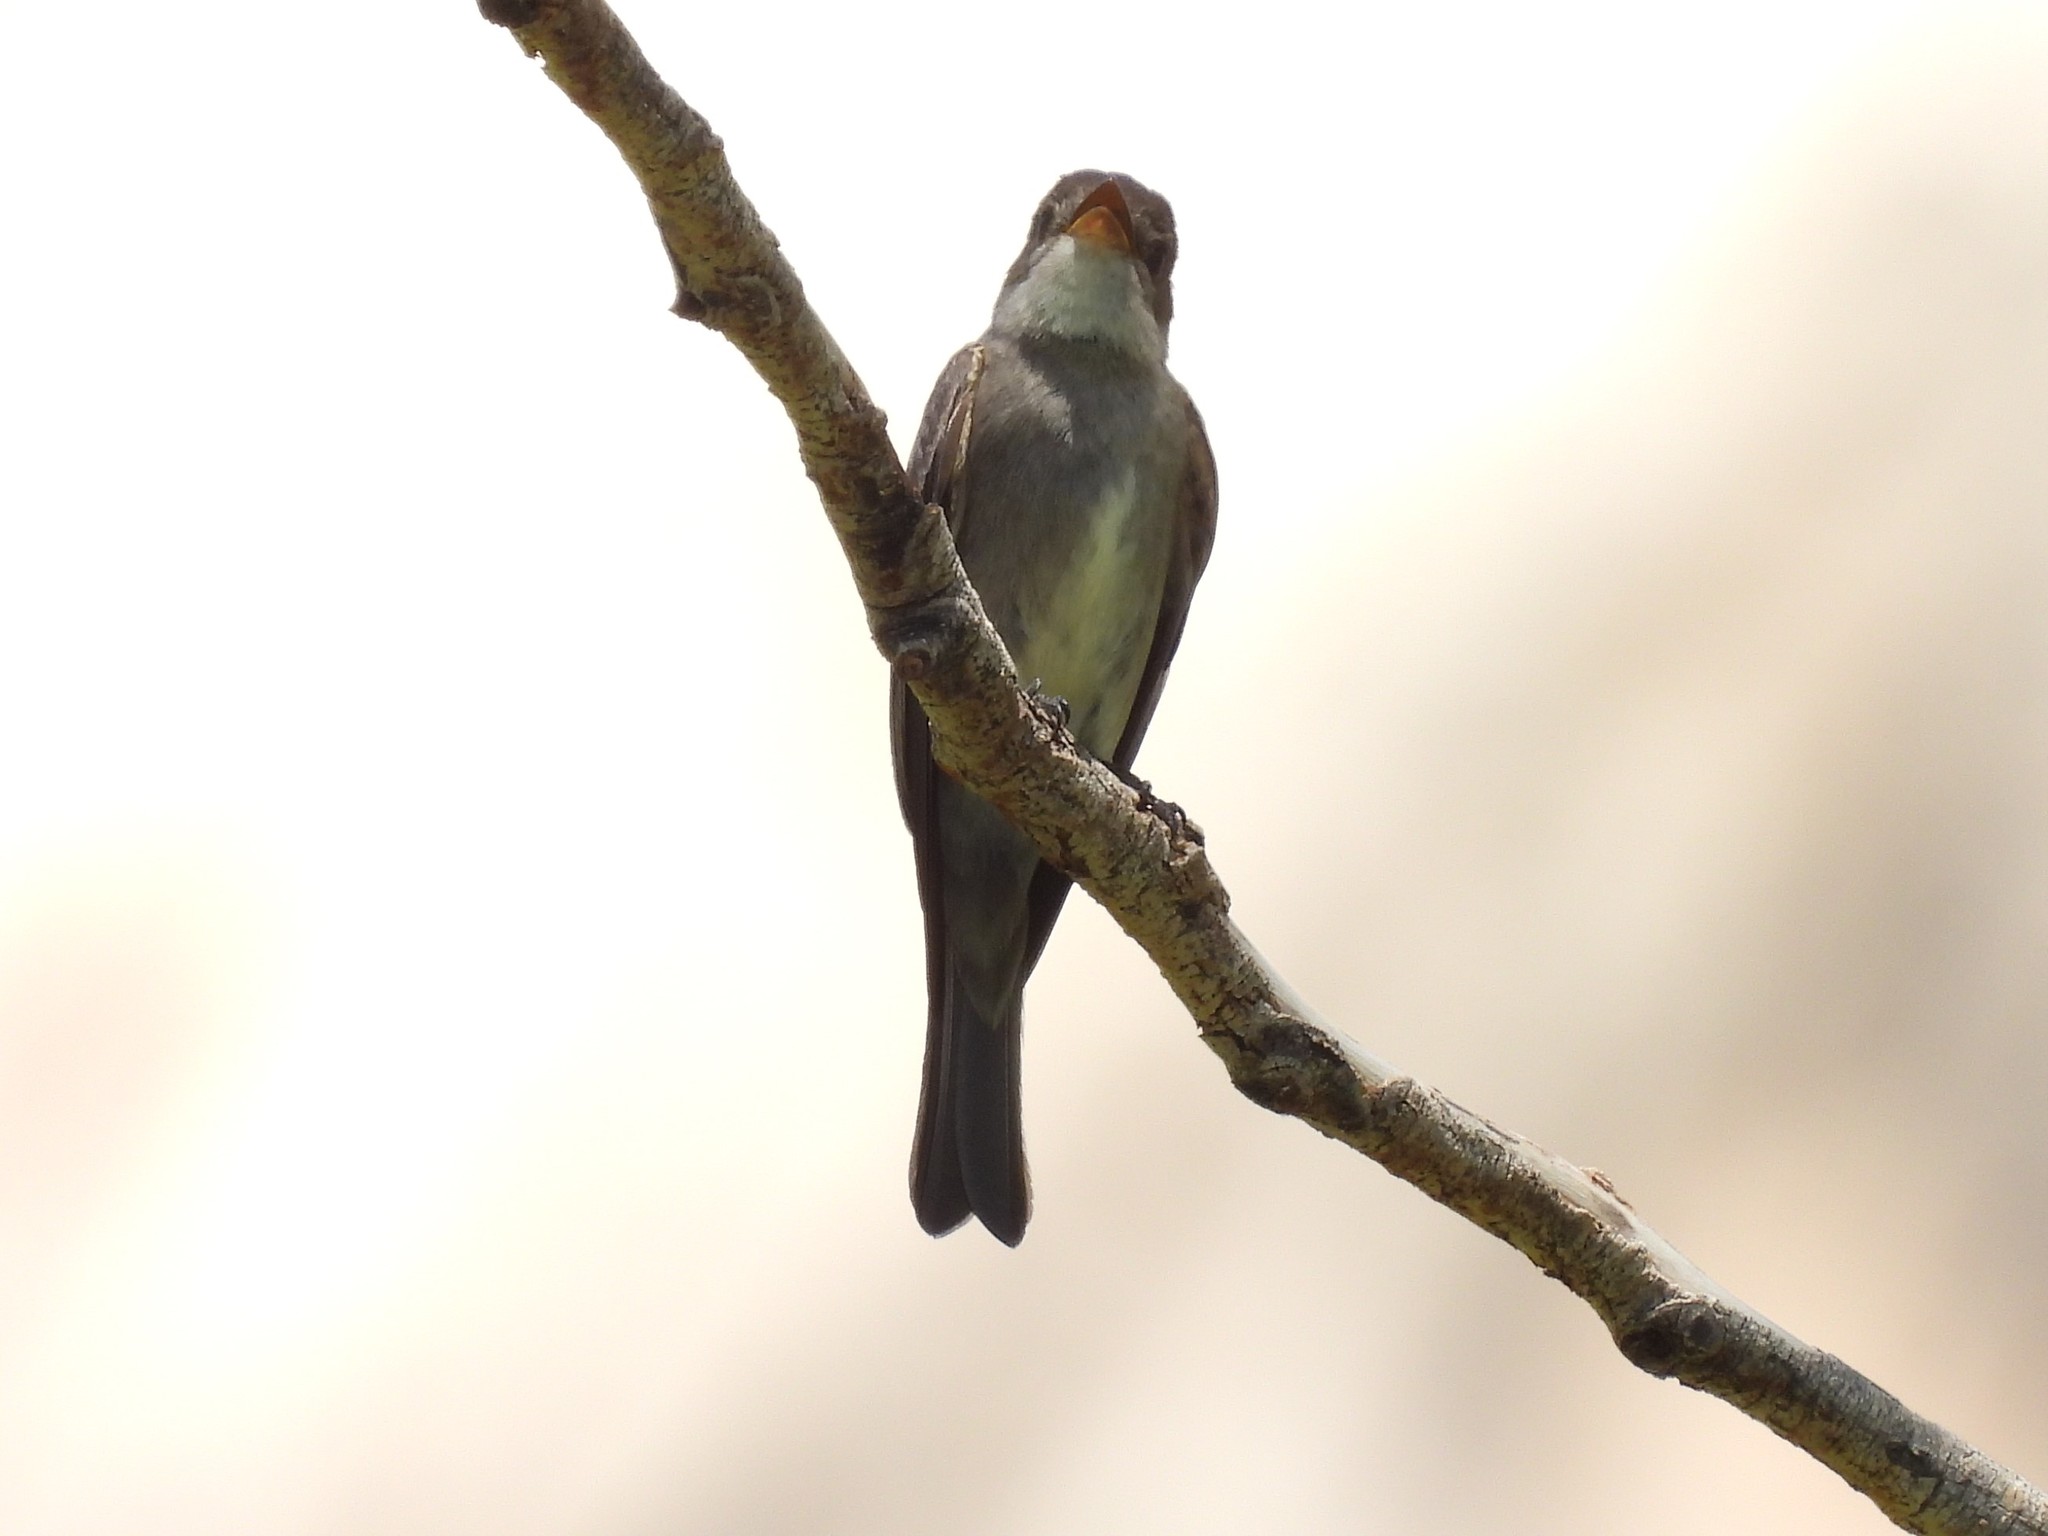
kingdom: Animalia
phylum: Chordata
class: Aves
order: Passeriformes
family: Tyrannidae
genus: Contopus
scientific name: Contopus sordidulus
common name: Western wood-pewee
